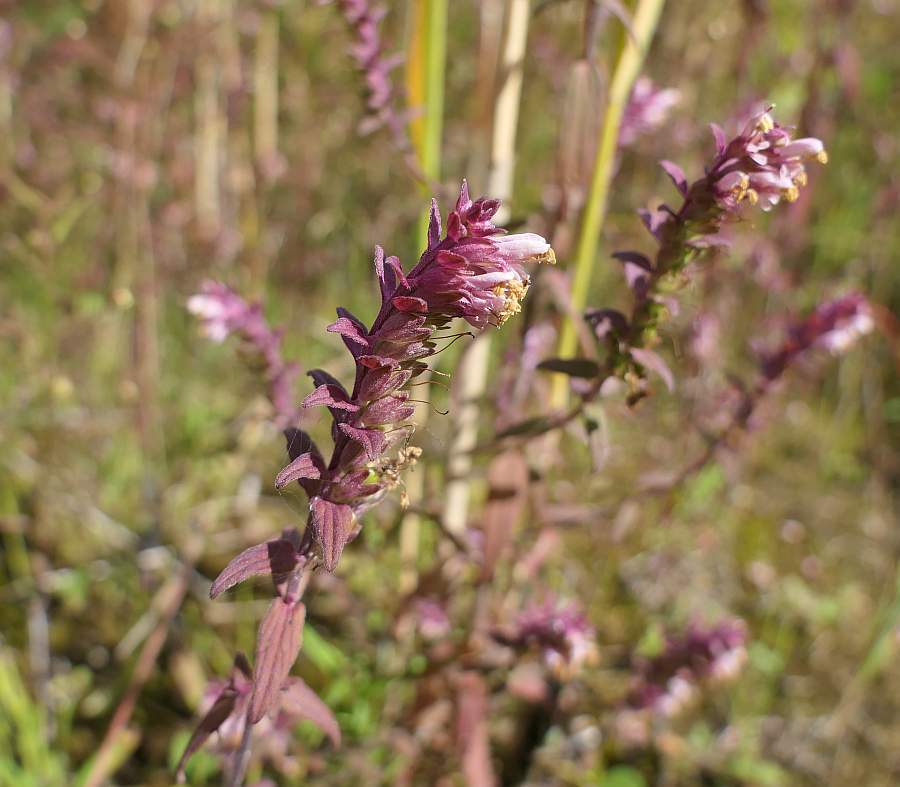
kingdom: Plantae
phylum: Tracheophyta
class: Magnoliopsida
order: Lamiales
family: Orobanchaceae
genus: Odontites
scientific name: Odontites vulgaris
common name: Broomrape
